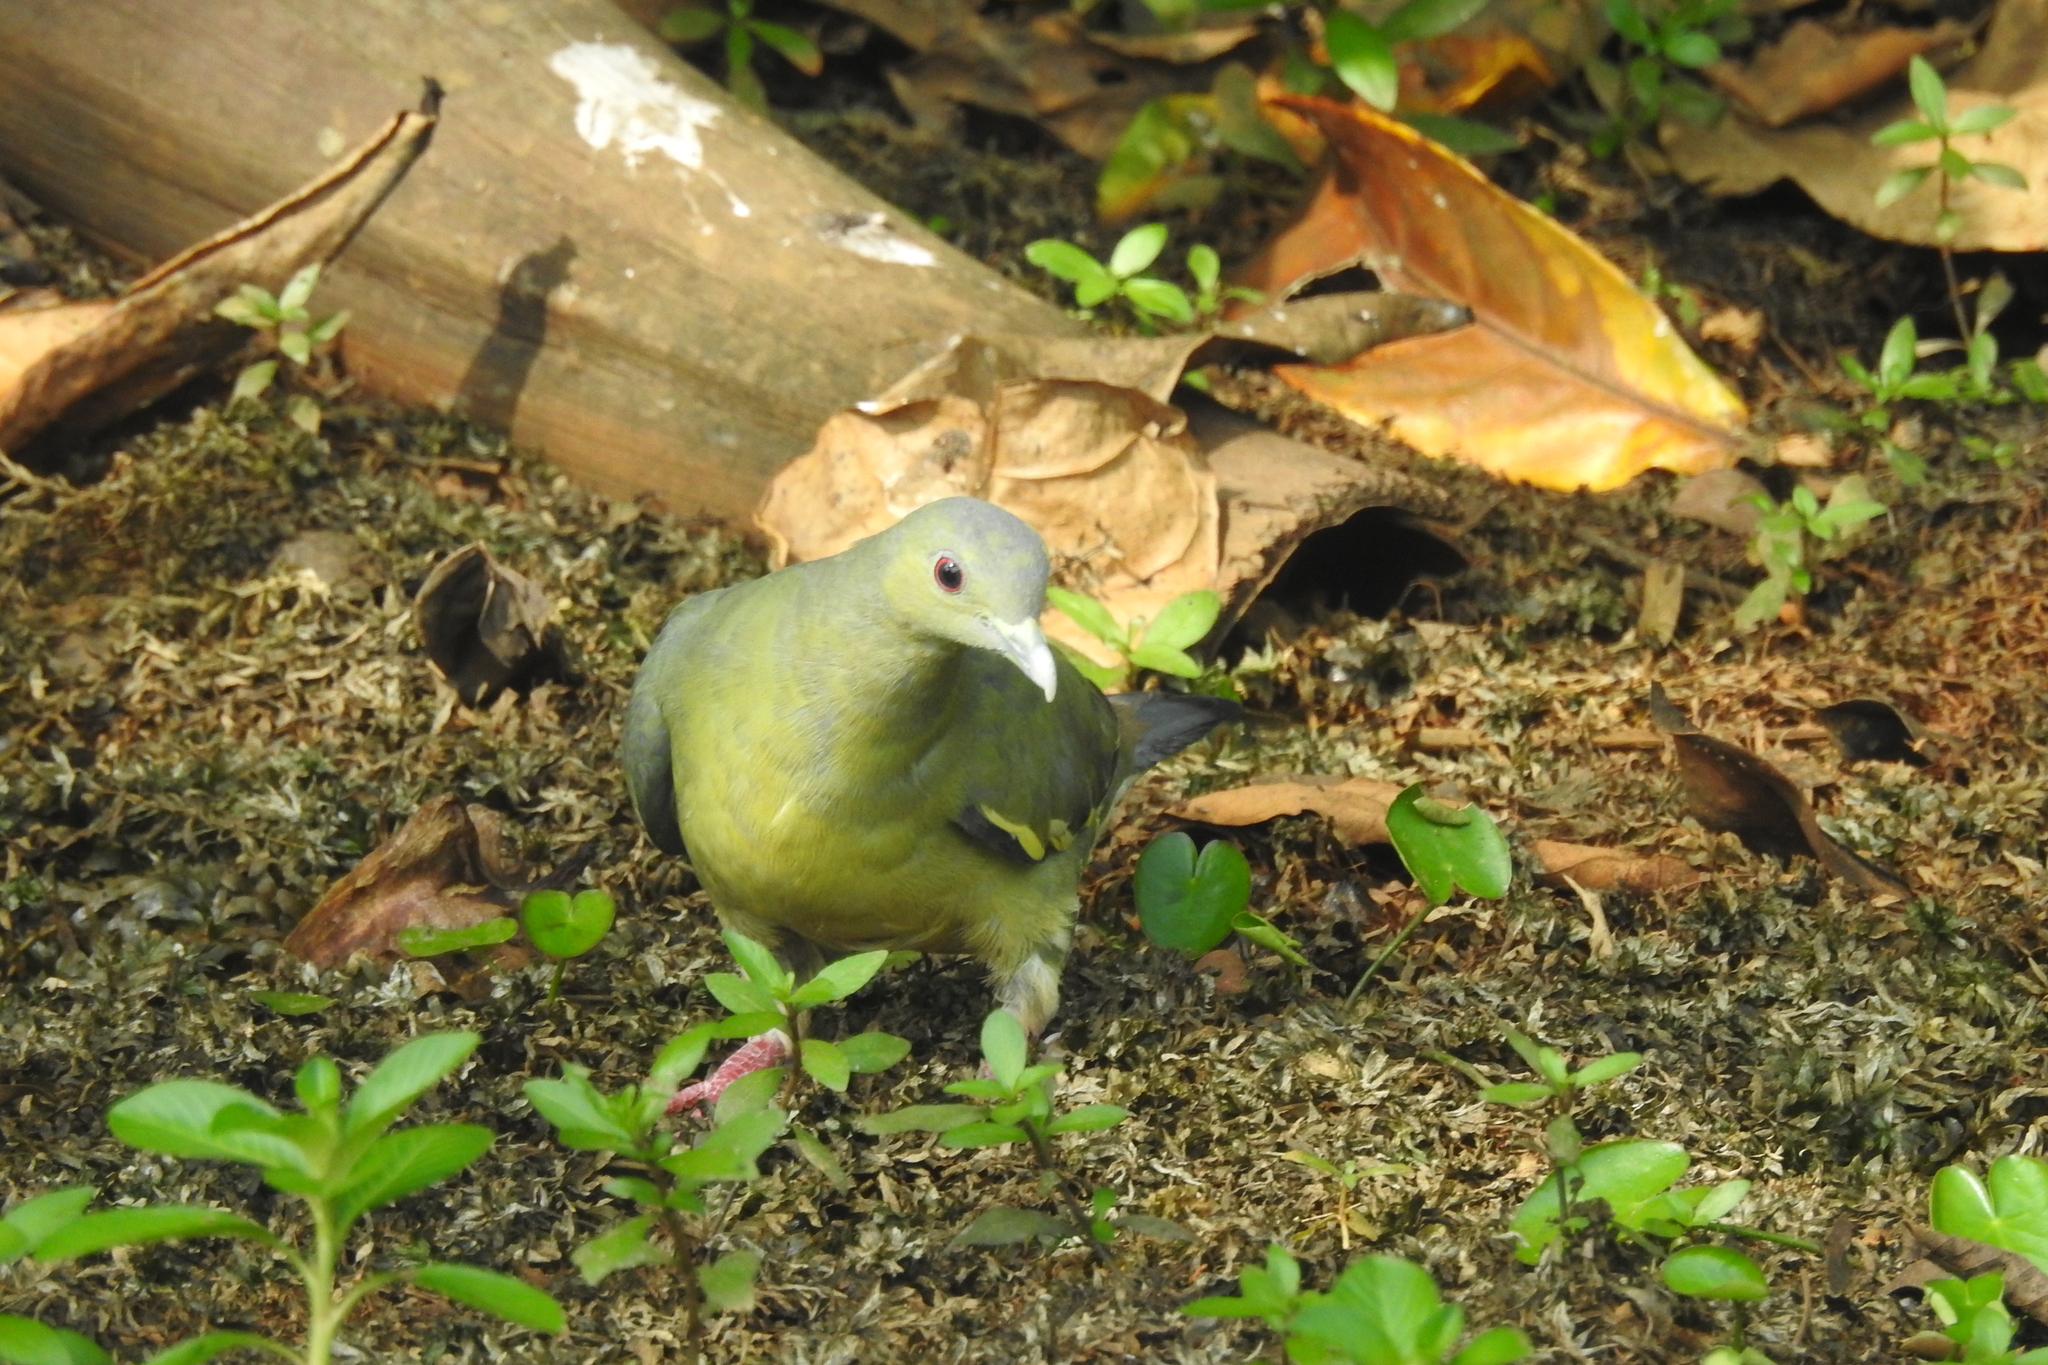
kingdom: Animalia
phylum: Chordata
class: Aves
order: Columbiformes
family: Columbidae
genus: Treron
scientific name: Treron vernans
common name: Pink-necked green pigeon
